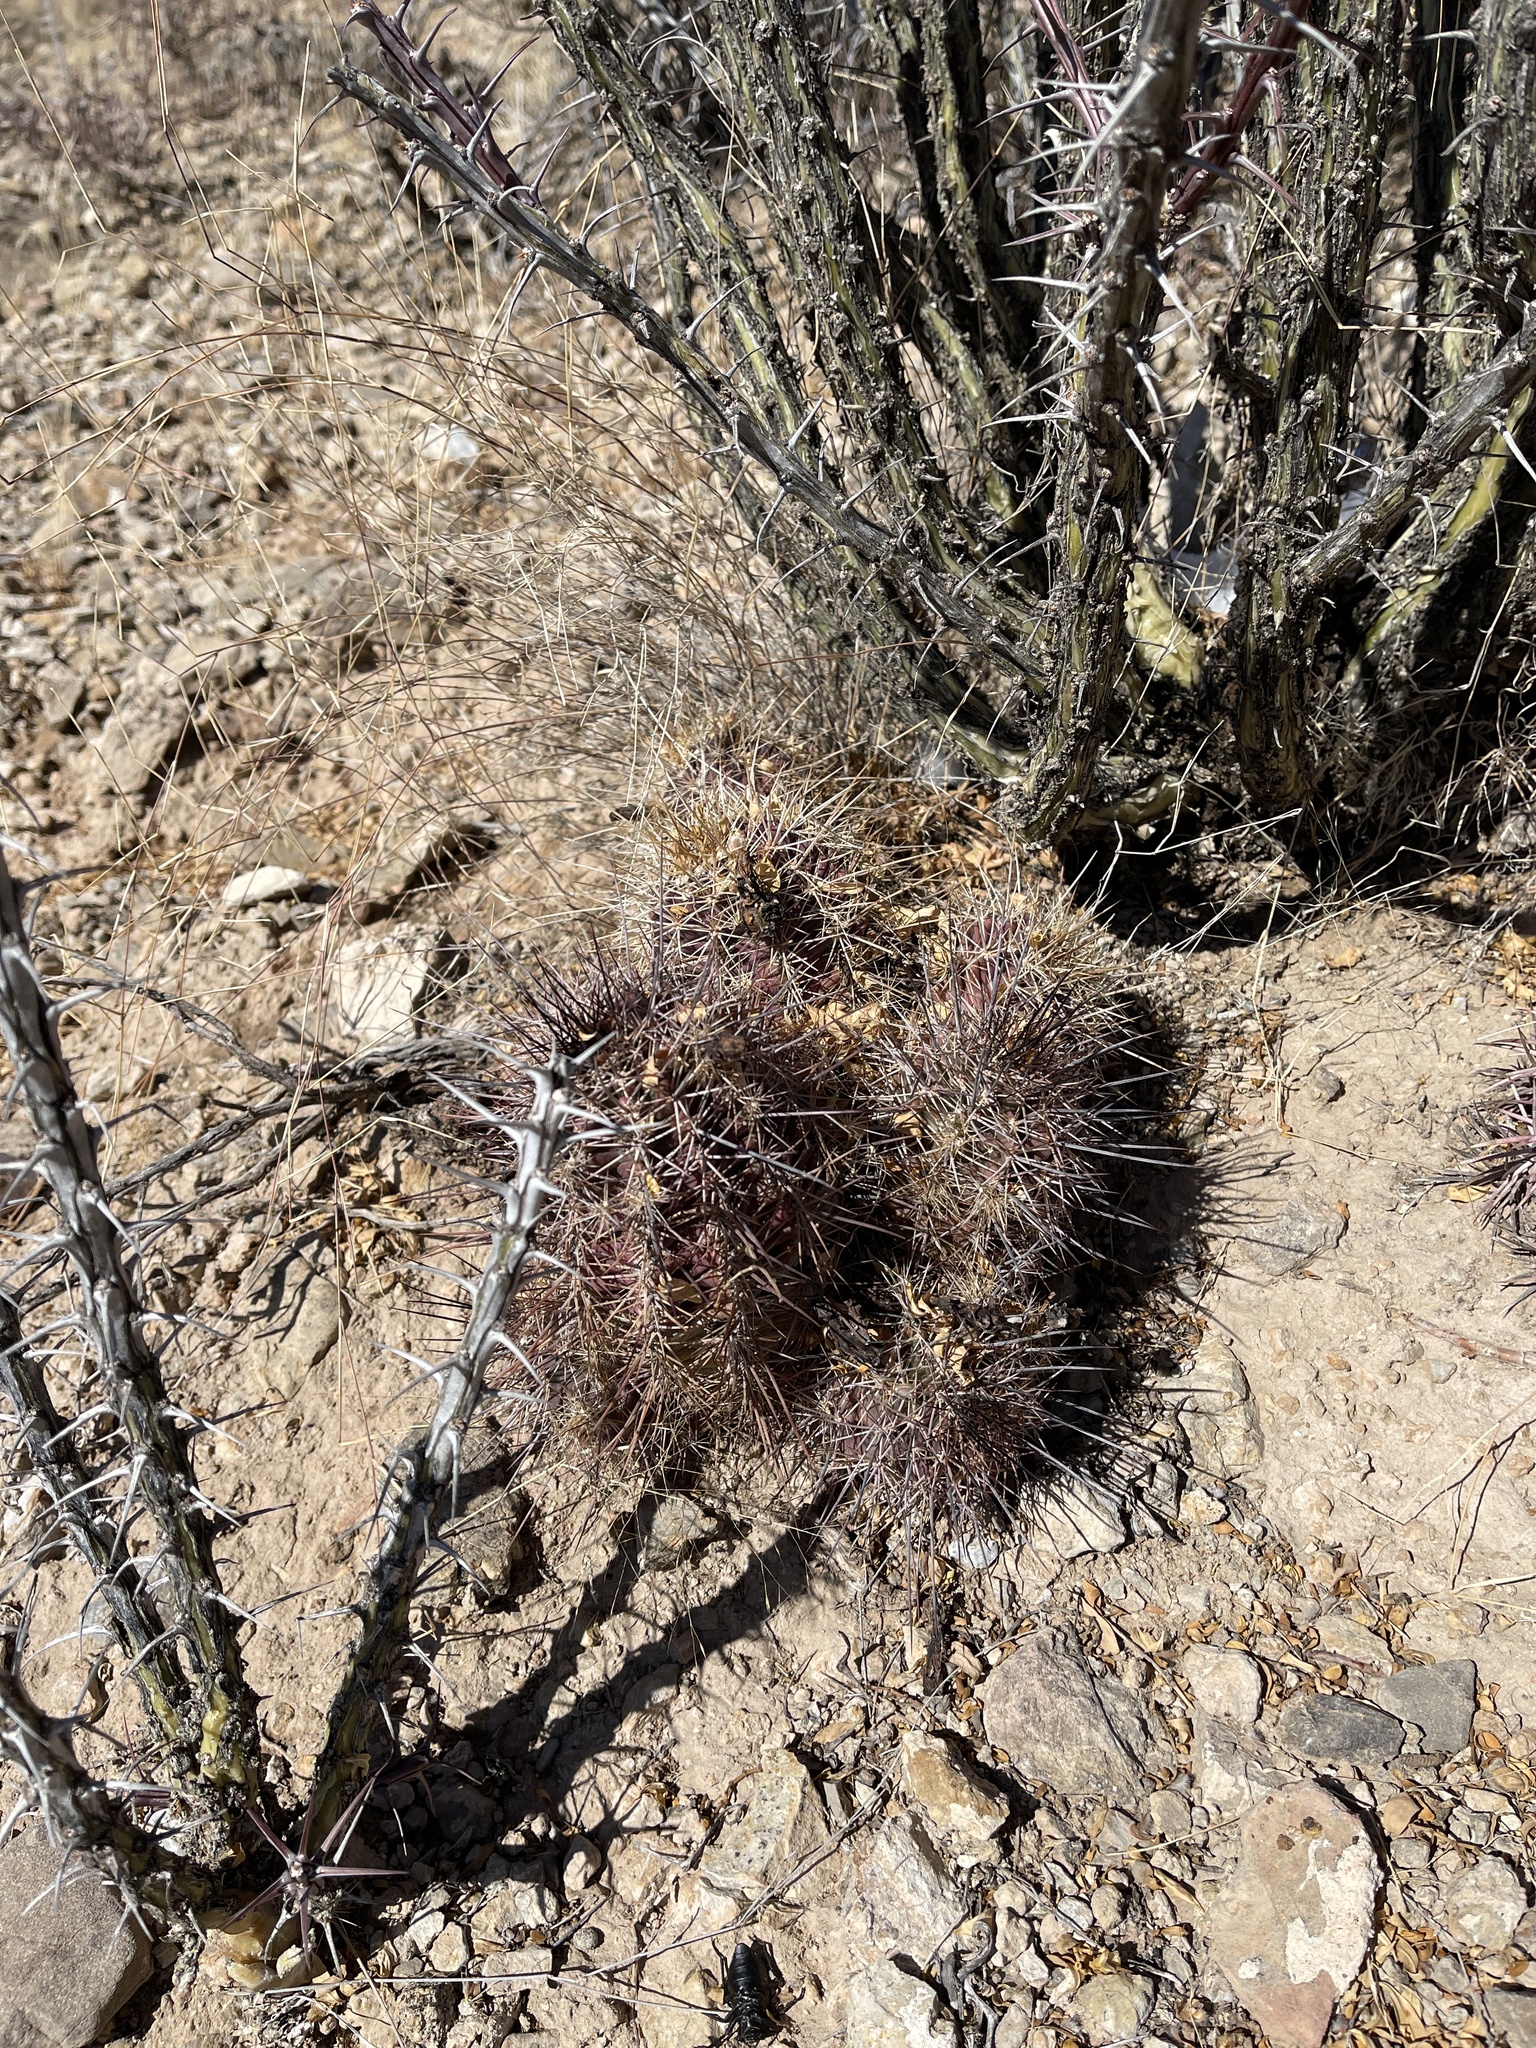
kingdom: Plantae
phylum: Tracheophyta
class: Magnoliopsida
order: Caryophyllales
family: Cactaceae
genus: Echinocereus
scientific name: Echinocereus coccineus
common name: Scarlet hedgehog cactus
